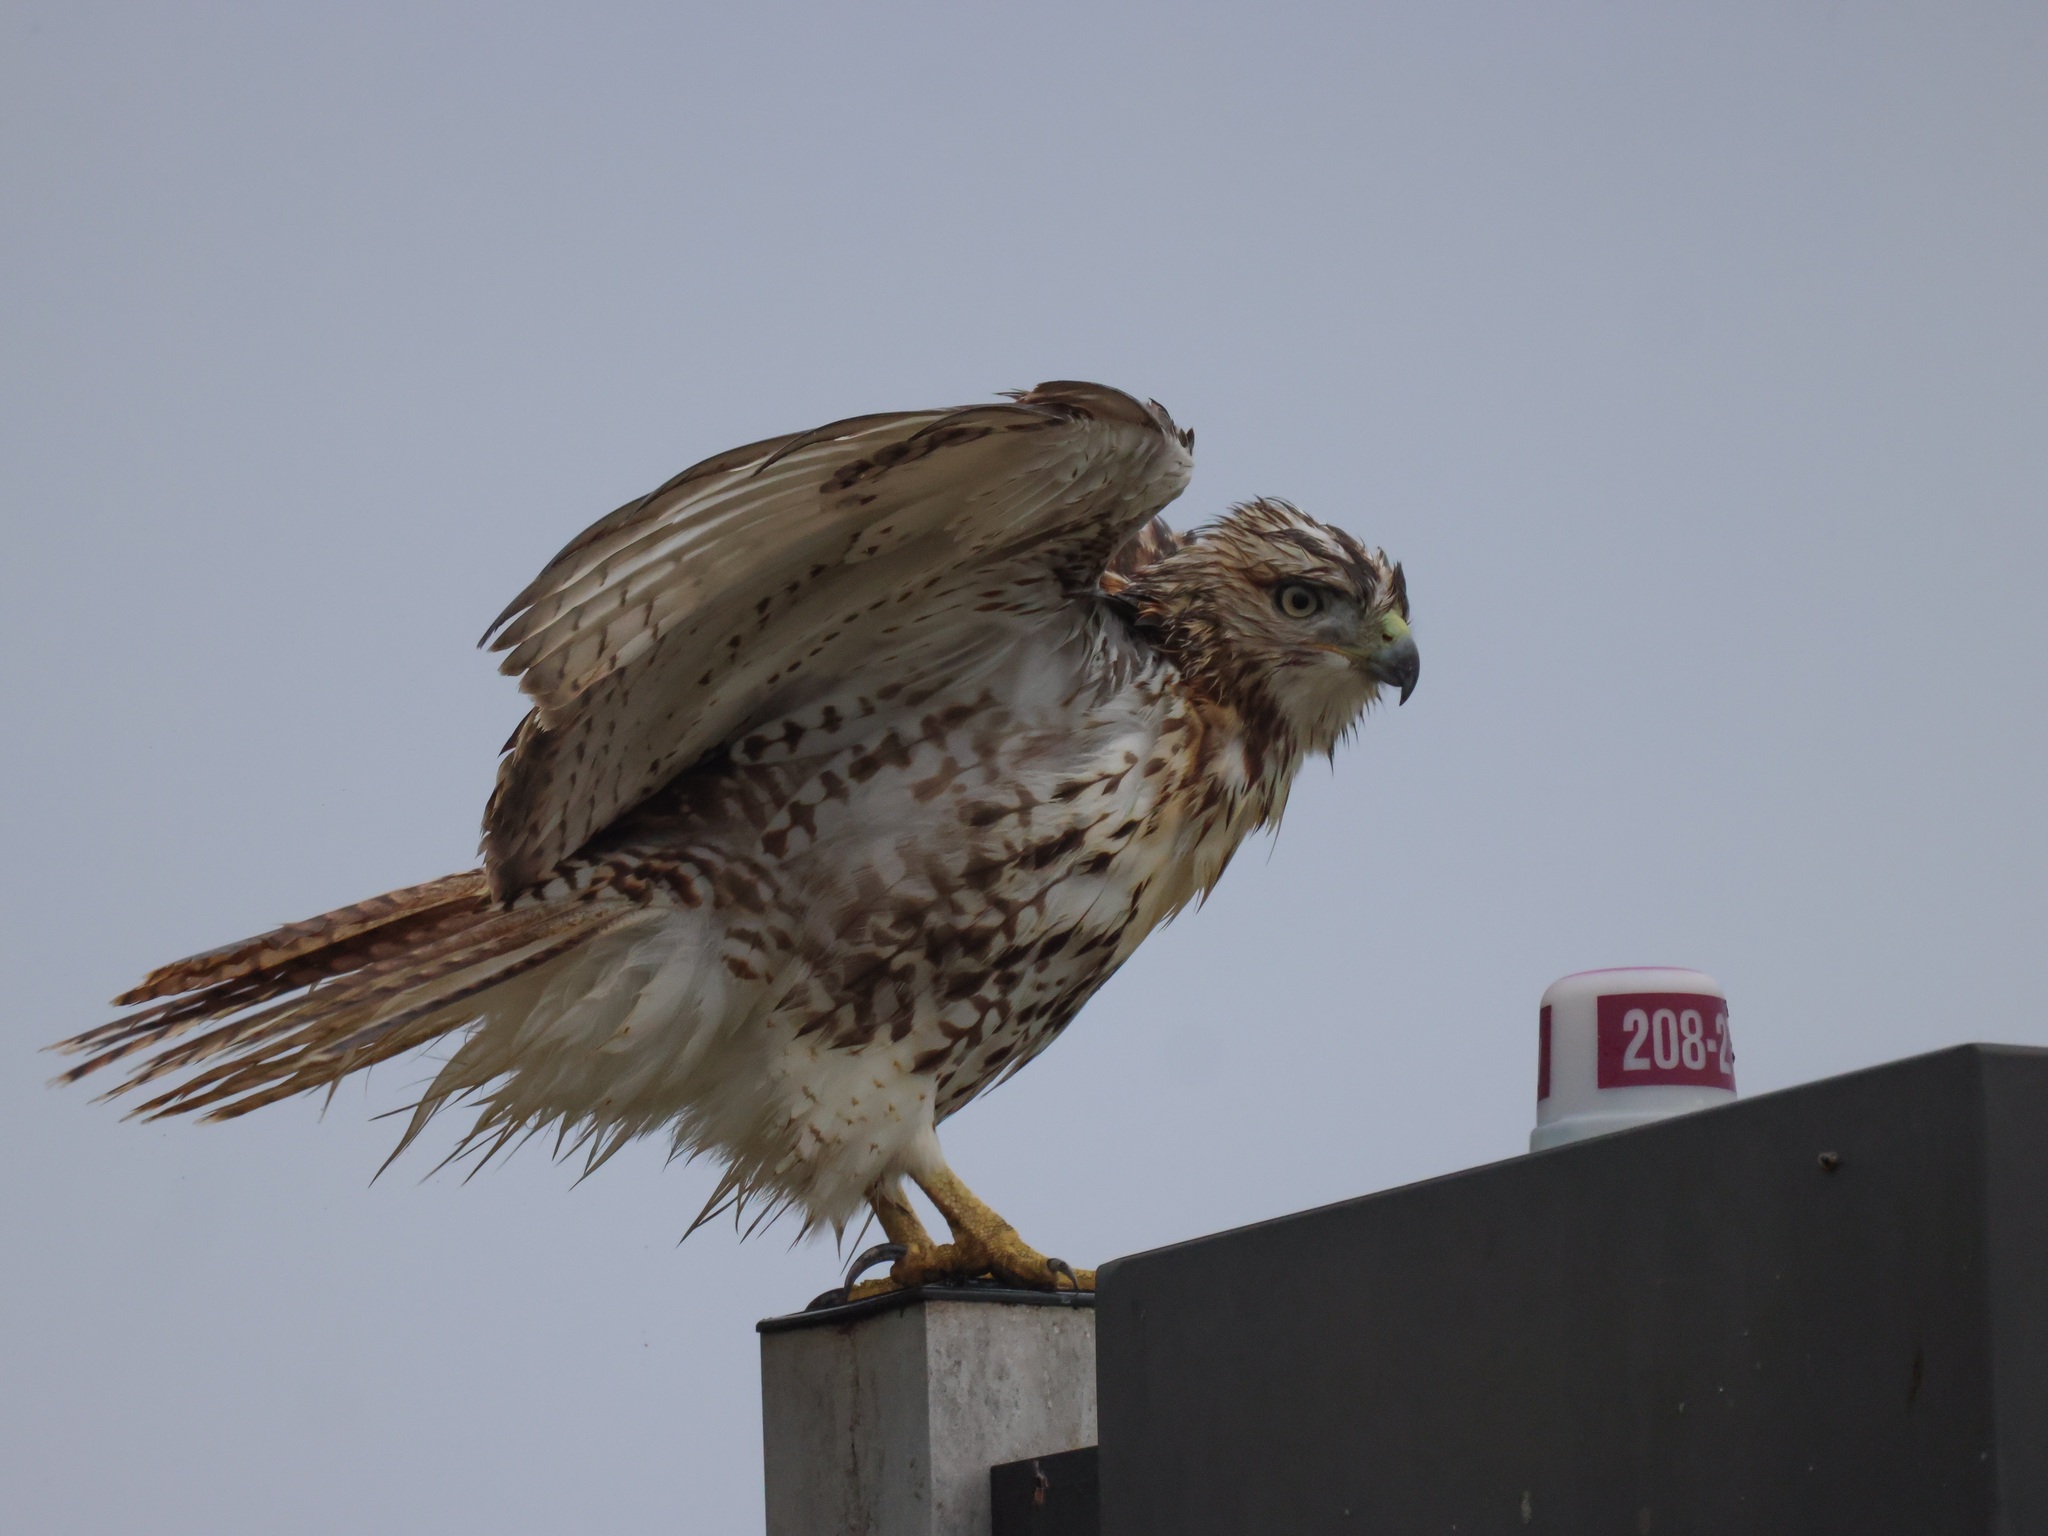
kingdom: Animalia
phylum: Chordata
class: Aves
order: Accipitriformes
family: Accipitridae
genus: Buteo
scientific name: Buteo jamaicensis
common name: Red-tailed hawk
